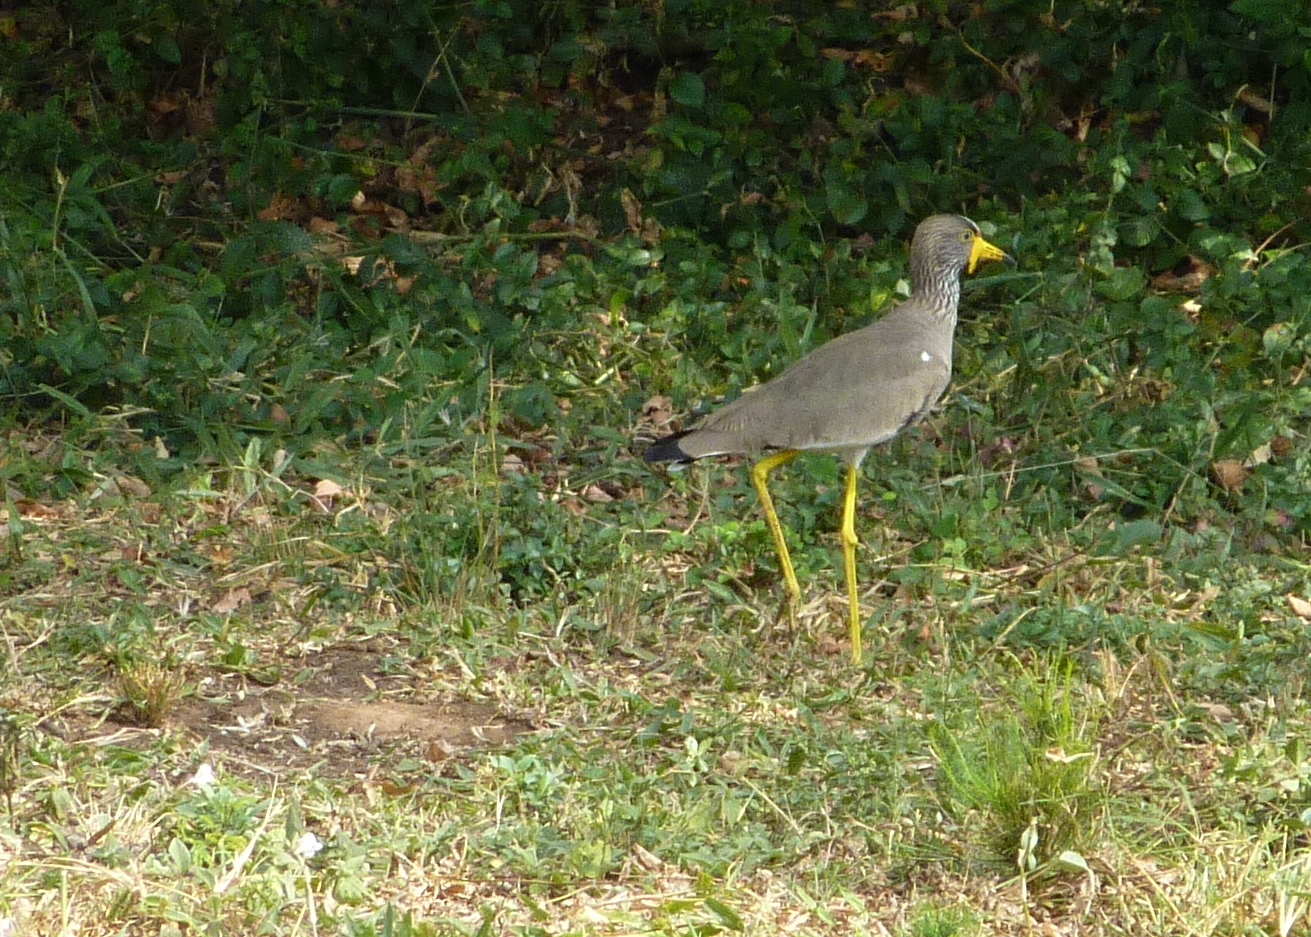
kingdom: Animalia
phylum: Chordata
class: Aves
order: Charadriiformes
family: Charadriidae
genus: Vanellus
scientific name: Vanellus senegallus
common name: African wattled lapwing
